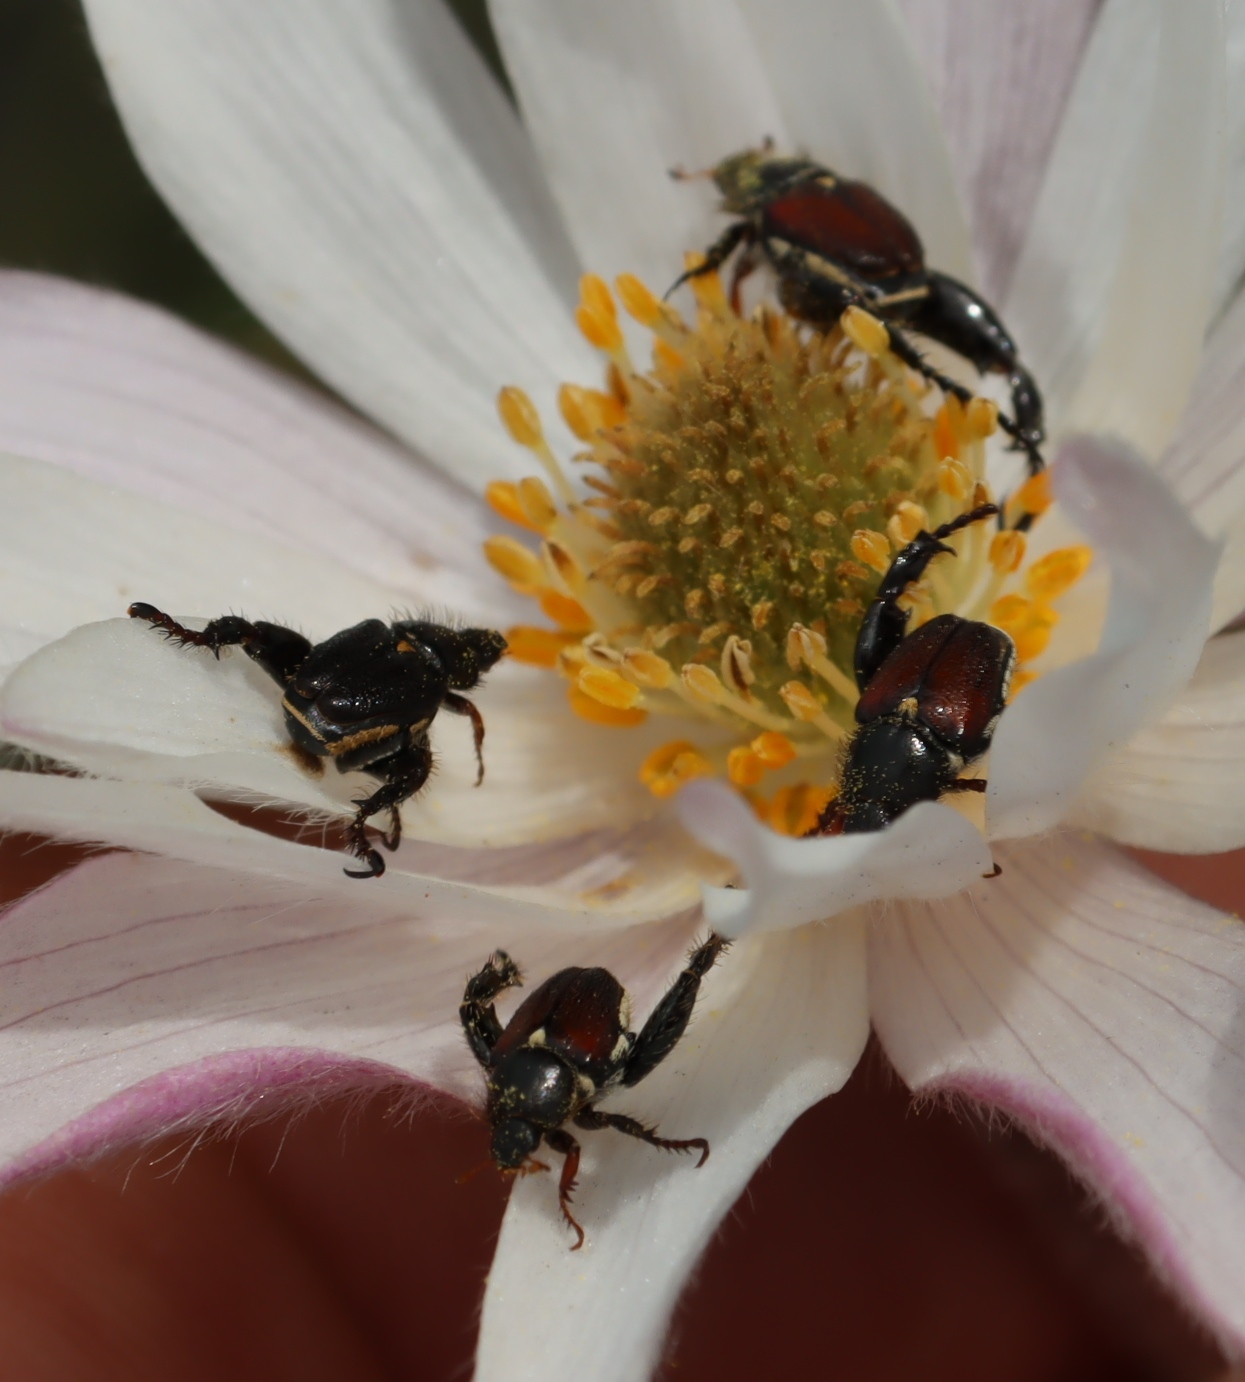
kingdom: Plantae
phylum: Tracheophyta
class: Magnoliopsida
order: Ranunculales
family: Ranunculaceae
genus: Knowltonia
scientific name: Knowltonia tenuifolia
